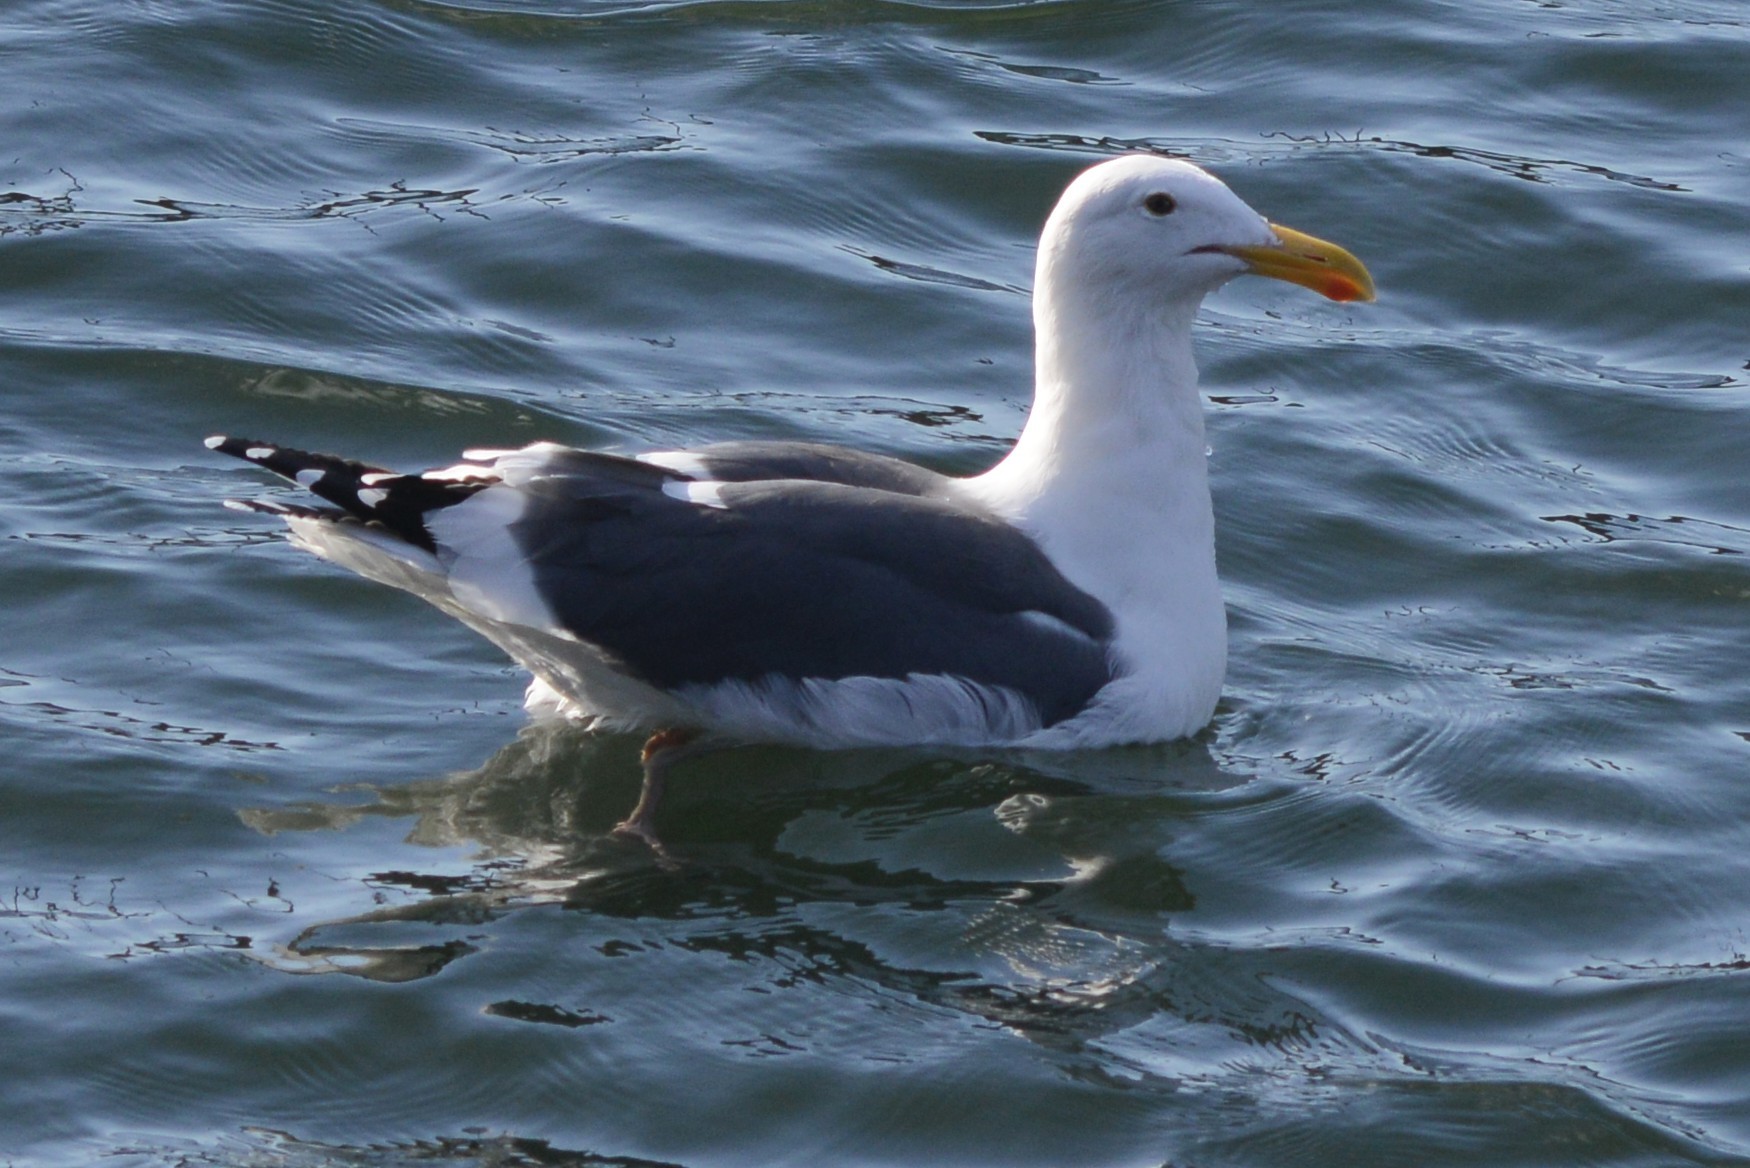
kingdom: Animalia
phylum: Chordata
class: Aves
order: Charadriiformes
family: Laridae
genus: Larus
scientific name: Larus occidentalis
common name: Western gull
